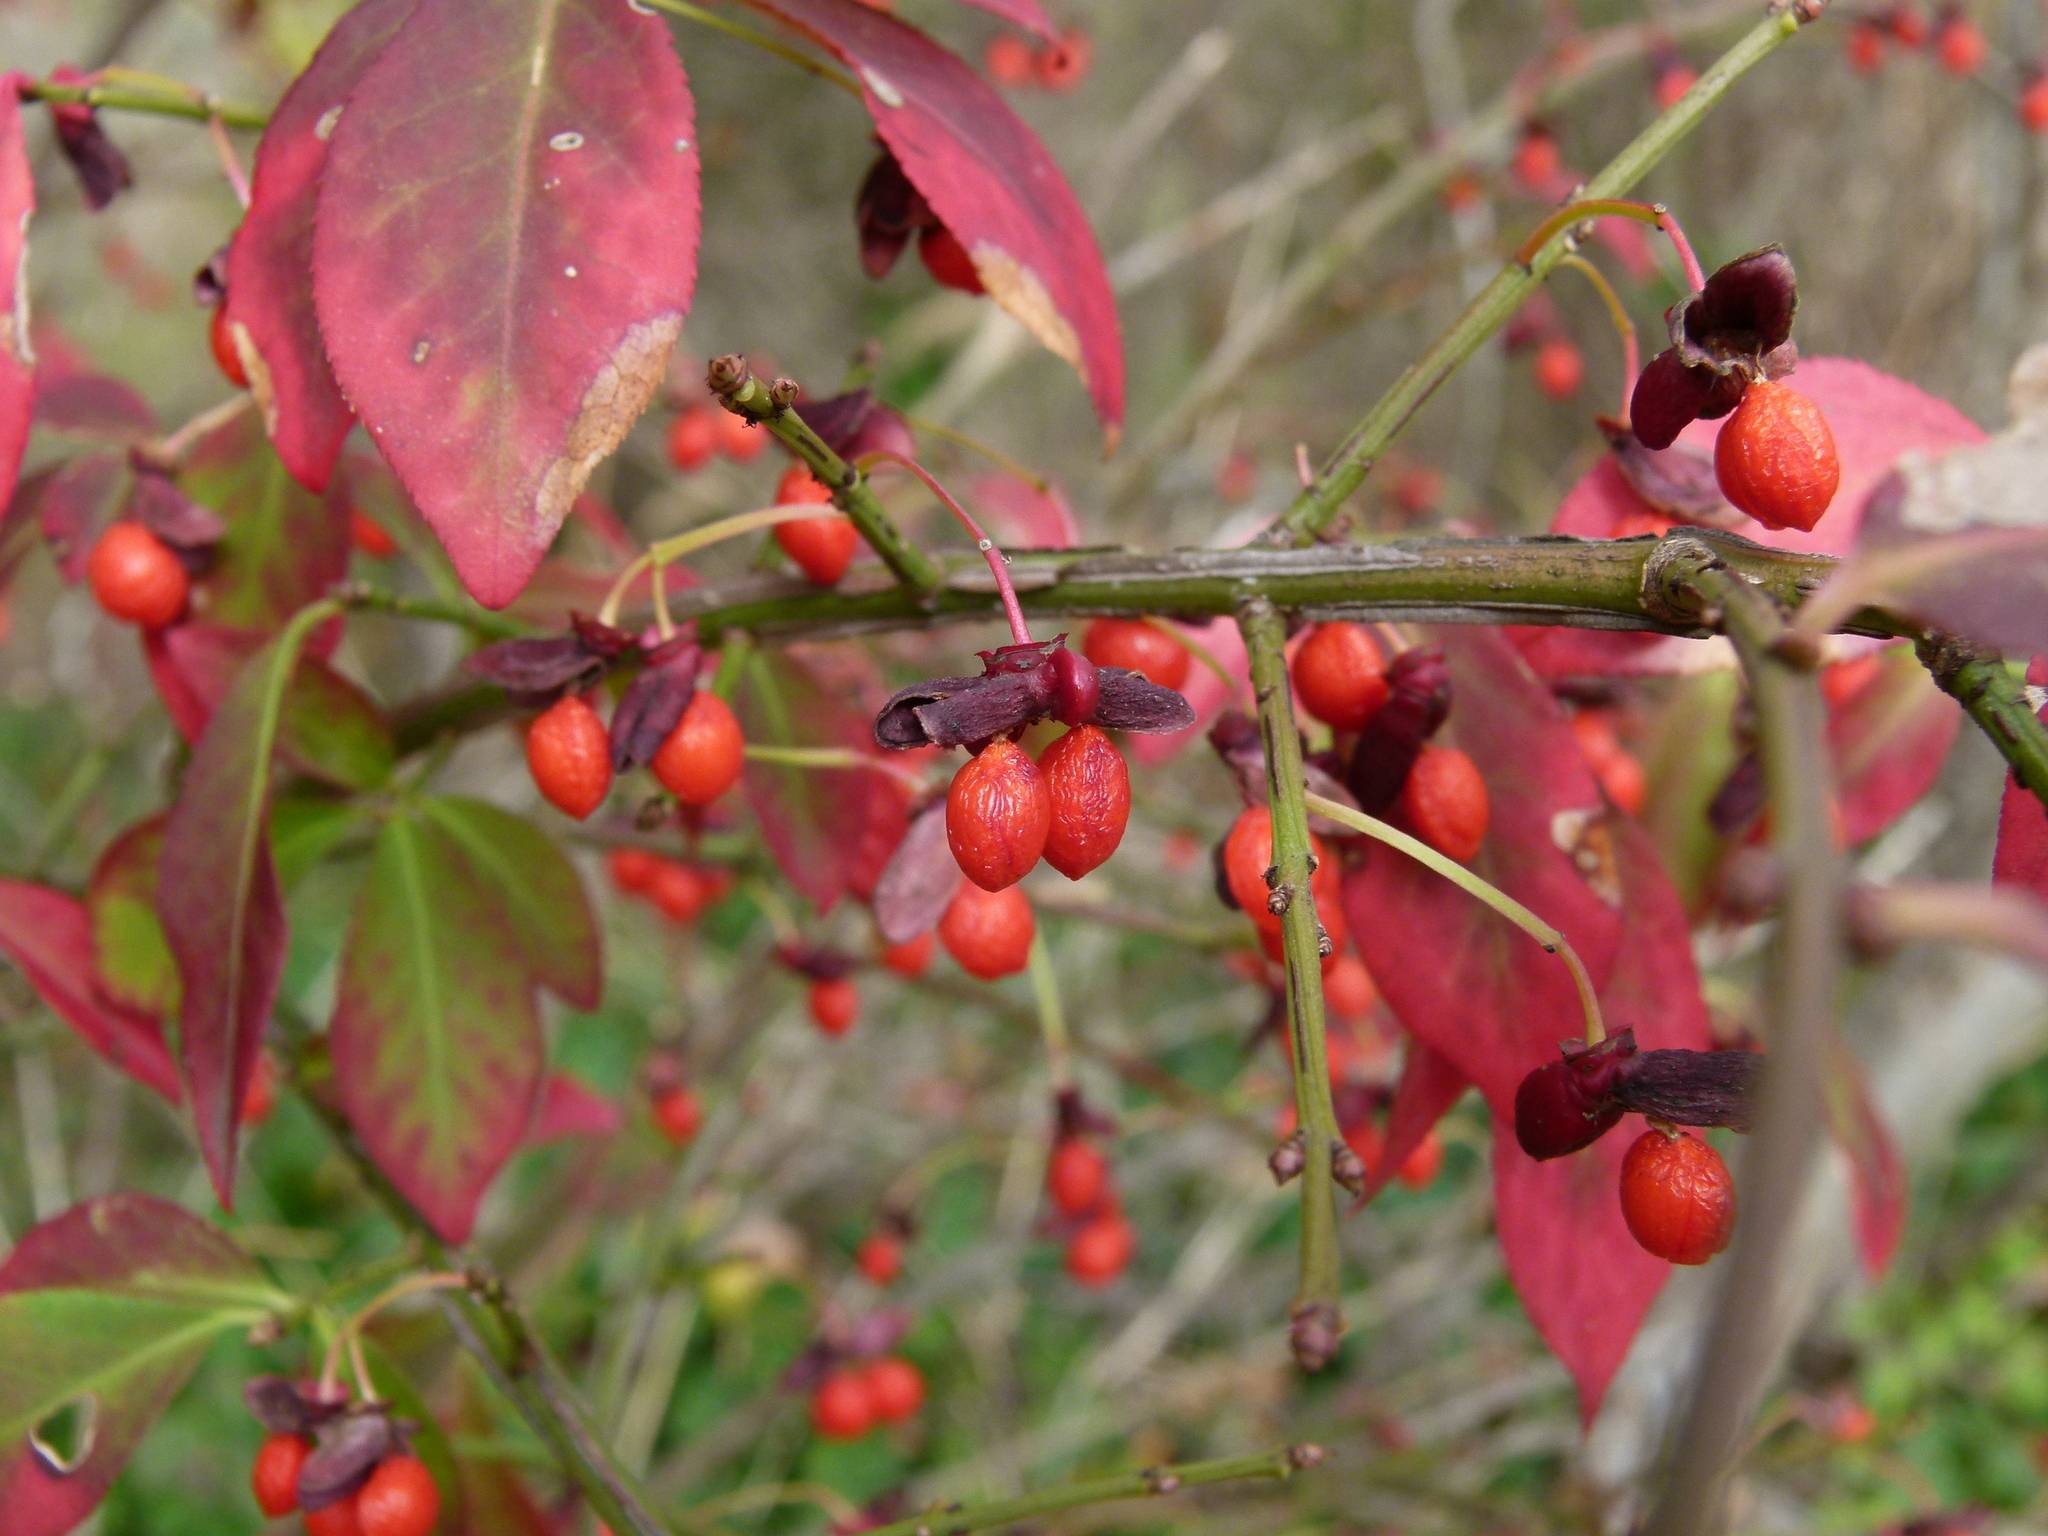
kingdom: Plantae
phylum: Tracheophyta
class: Magnoliopsida
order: Celastrales
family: Celastraceae
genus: Euonymus
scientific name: Euonymus alatus
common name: Winged euonymus
